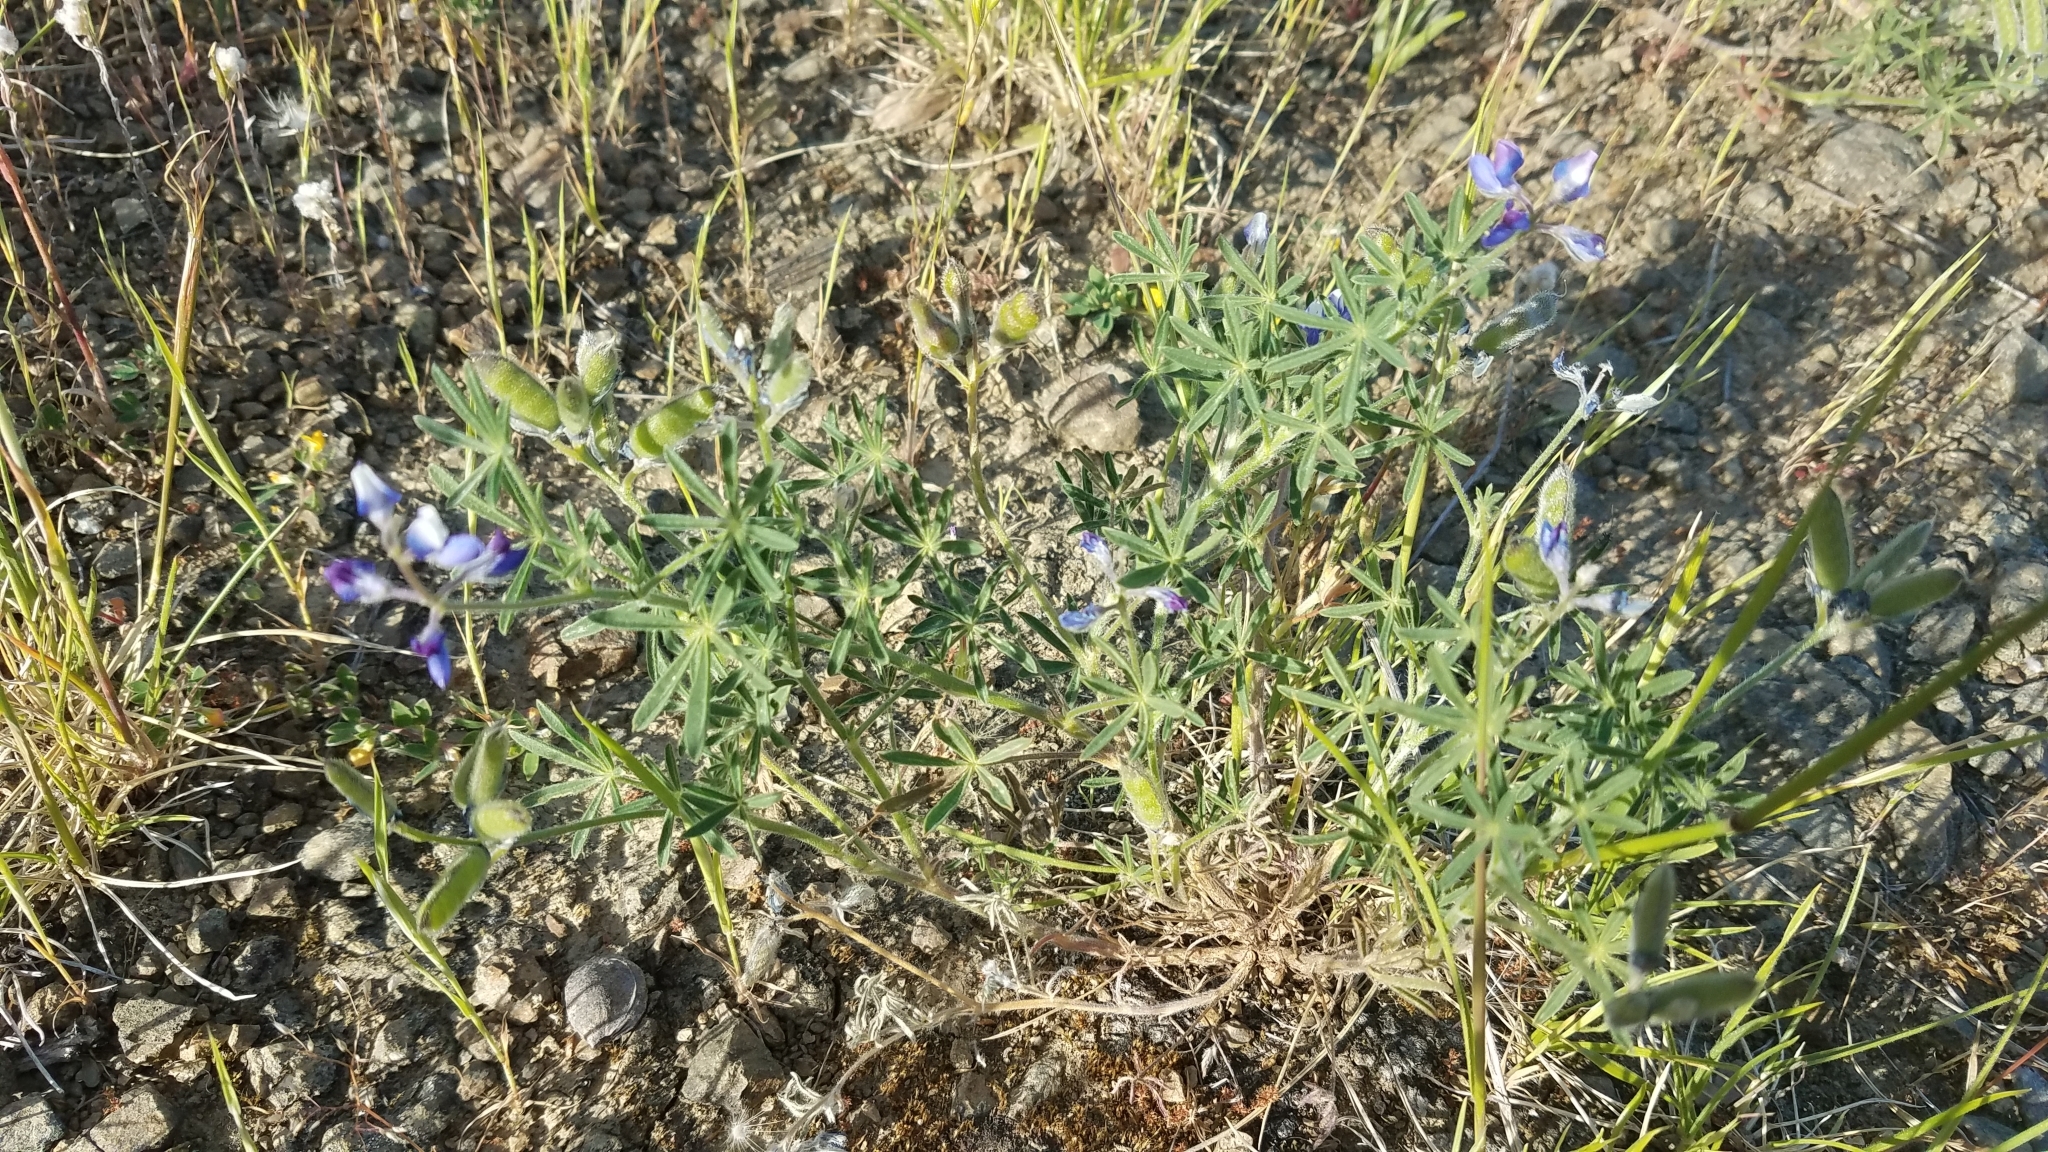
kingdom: Plantae
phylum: Tracheophyta
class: Magnoliopsida
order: Fabales
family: Fabaceae
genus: Lupinus
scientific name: Lupinus bicolor
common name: Miniature lupine
